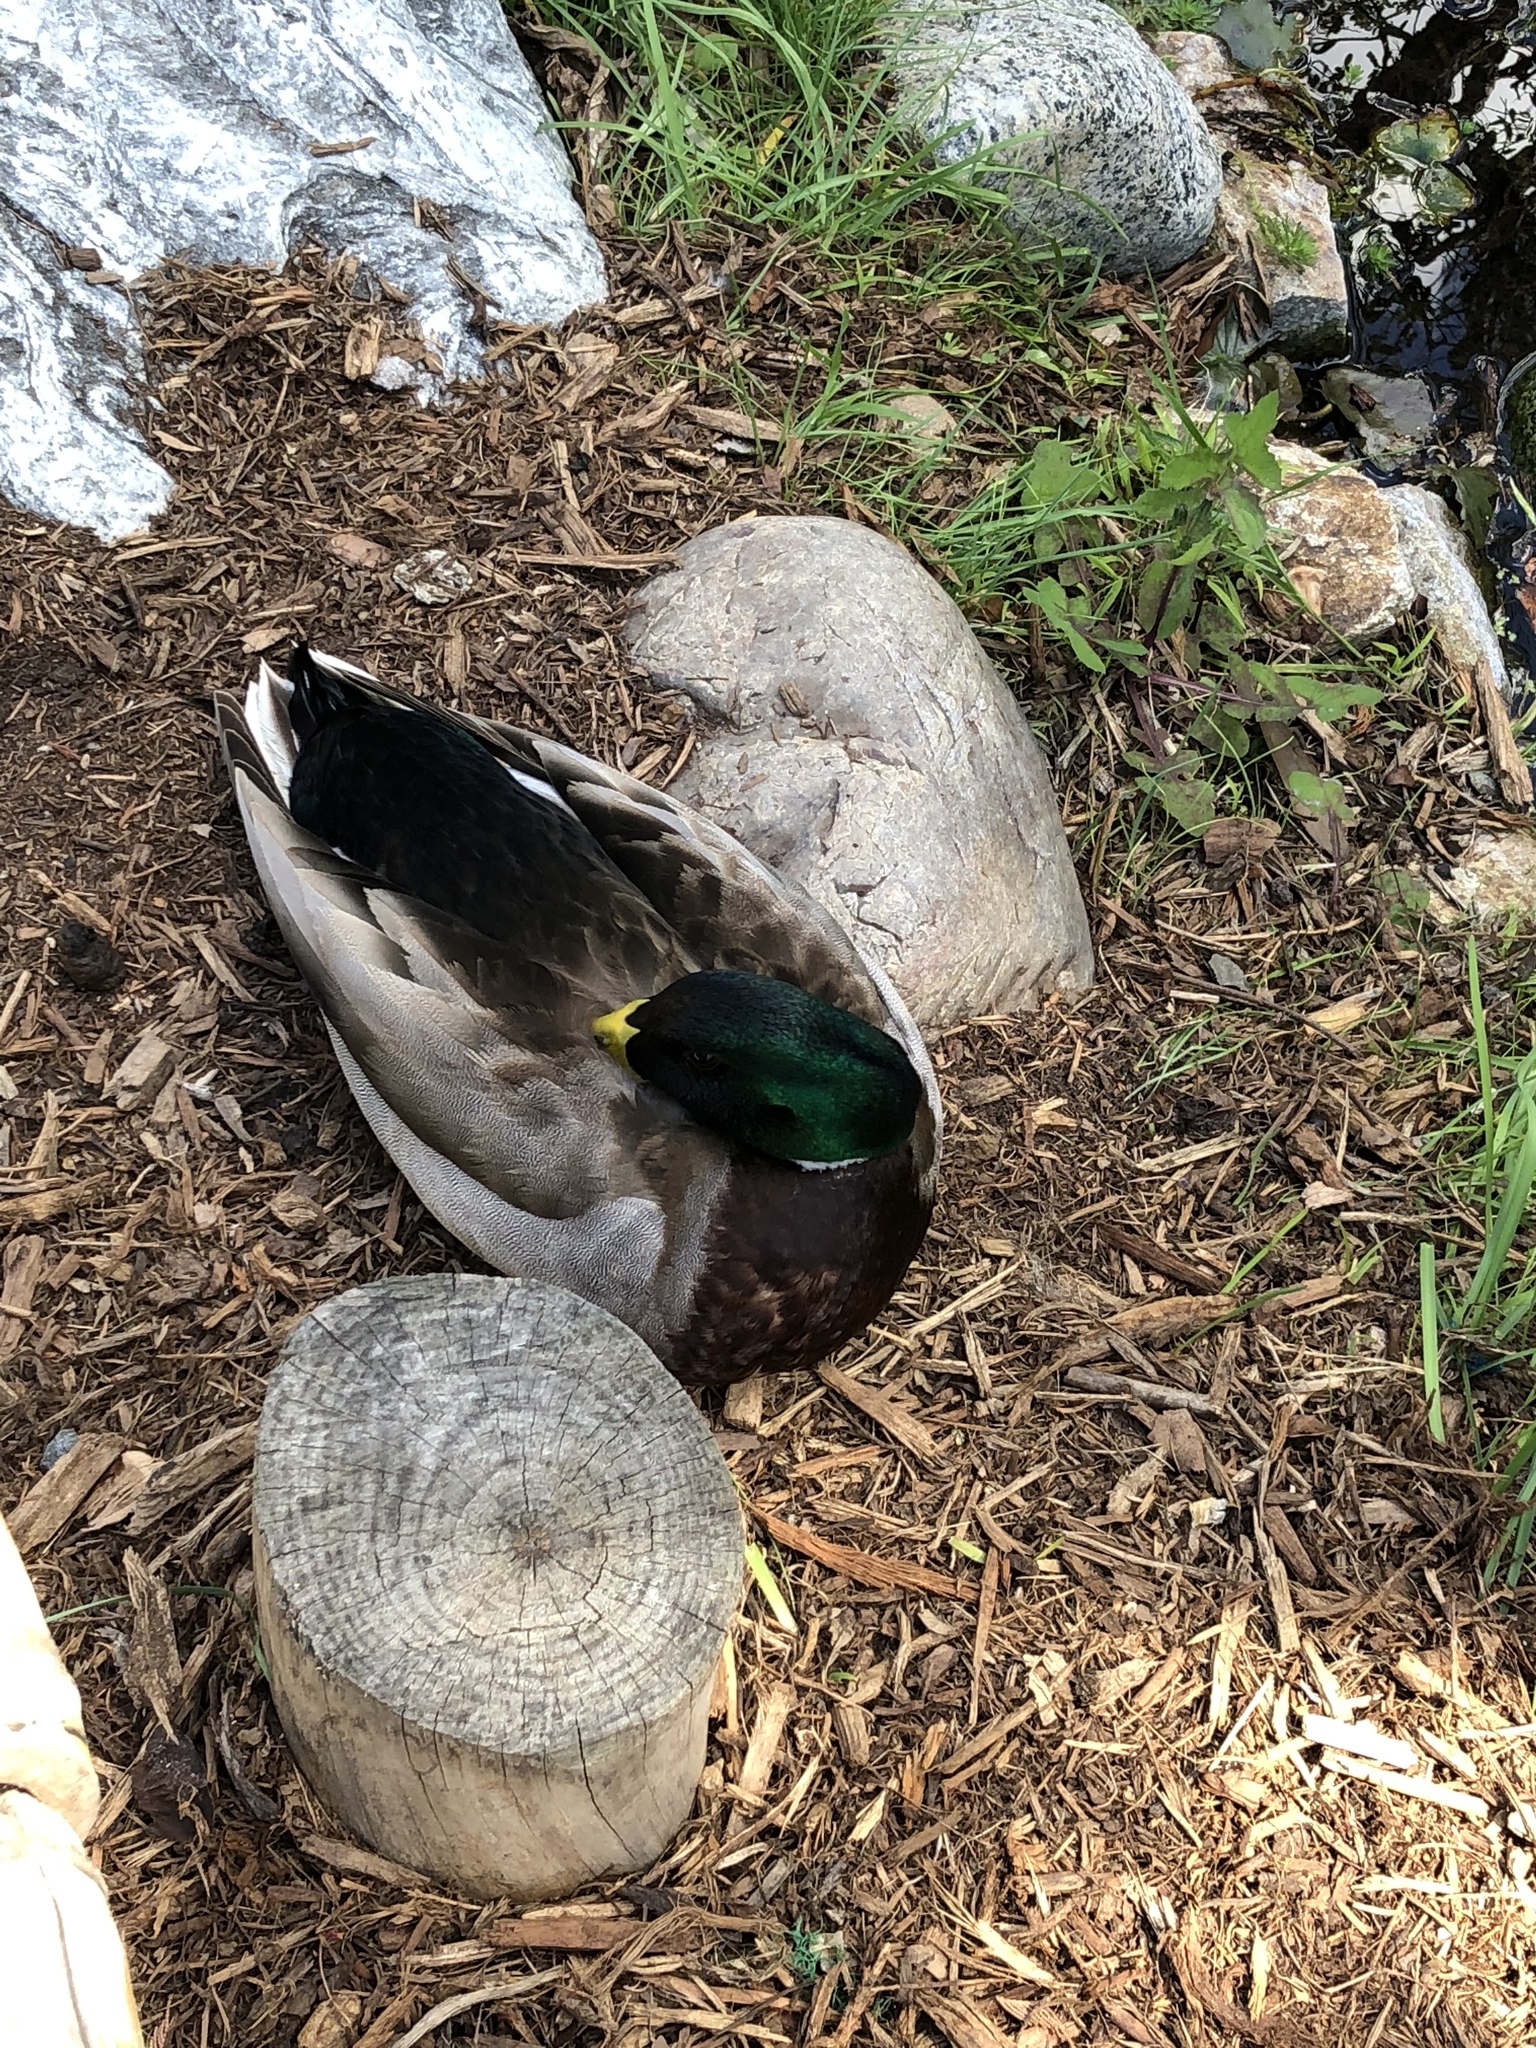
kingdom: Animalia
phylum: Chordata
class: Aves
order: Anseriformes
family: Anatidae
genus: Anas
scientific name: Anas platyrhynchos
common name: Mallard
